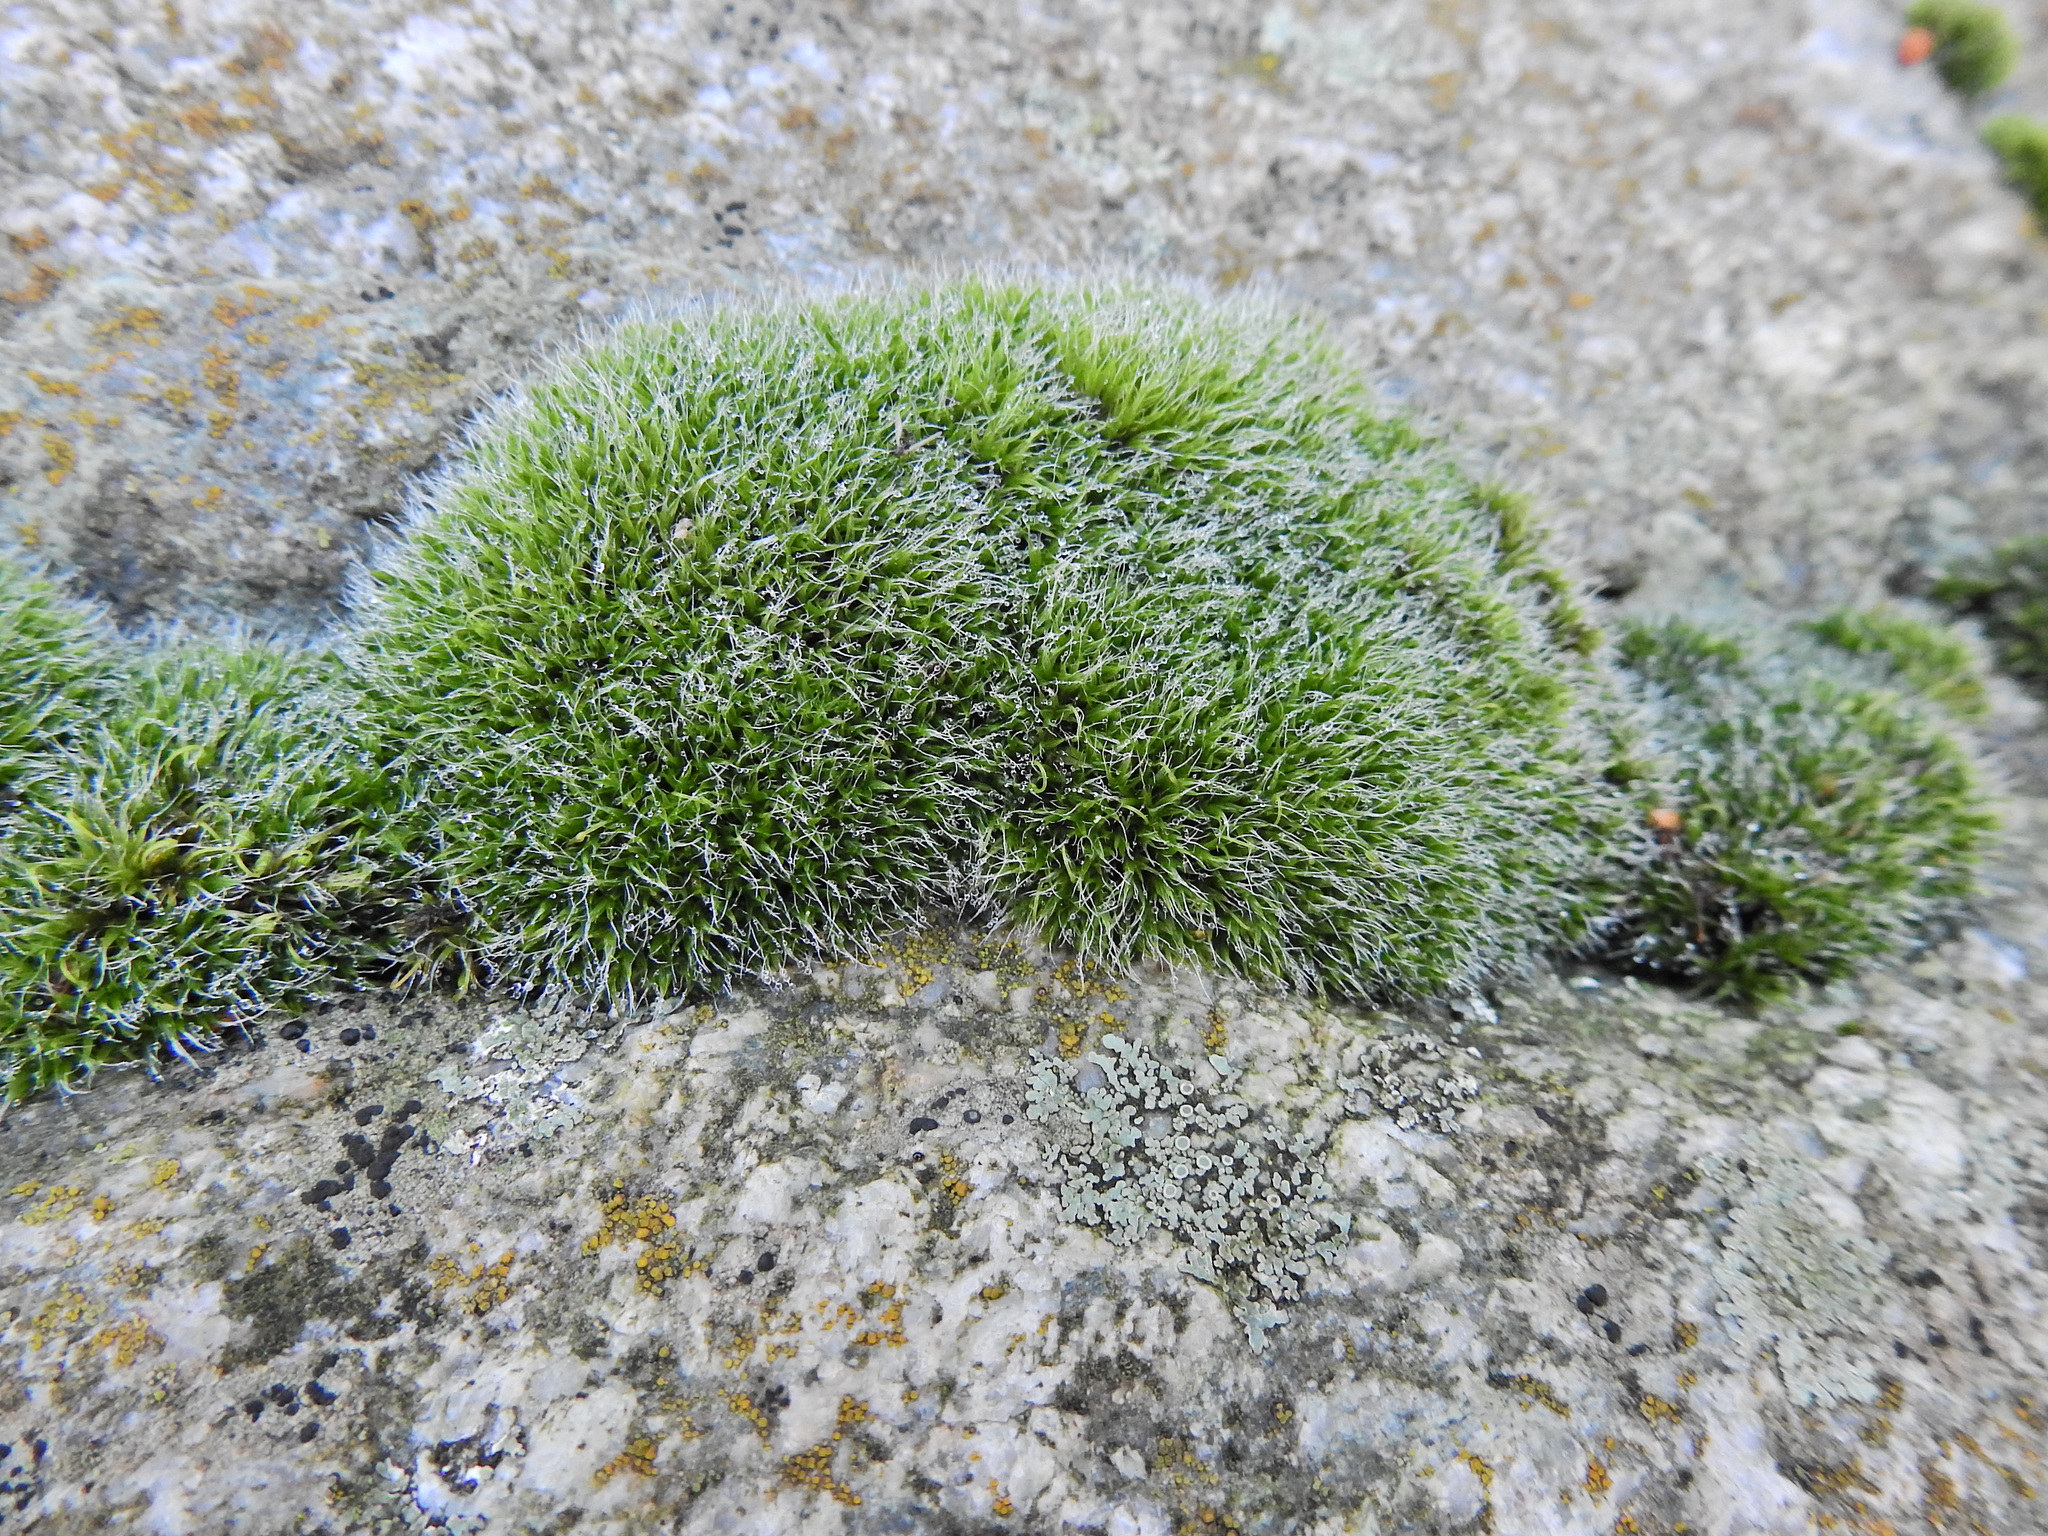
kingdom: Plantae
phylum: Bryophyta
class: Bryopsida
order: Grimmiales
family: Grimmiaceae
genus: Grimmia
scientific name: Grimmia pulvinata
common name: Grey-cushioned grimmia
